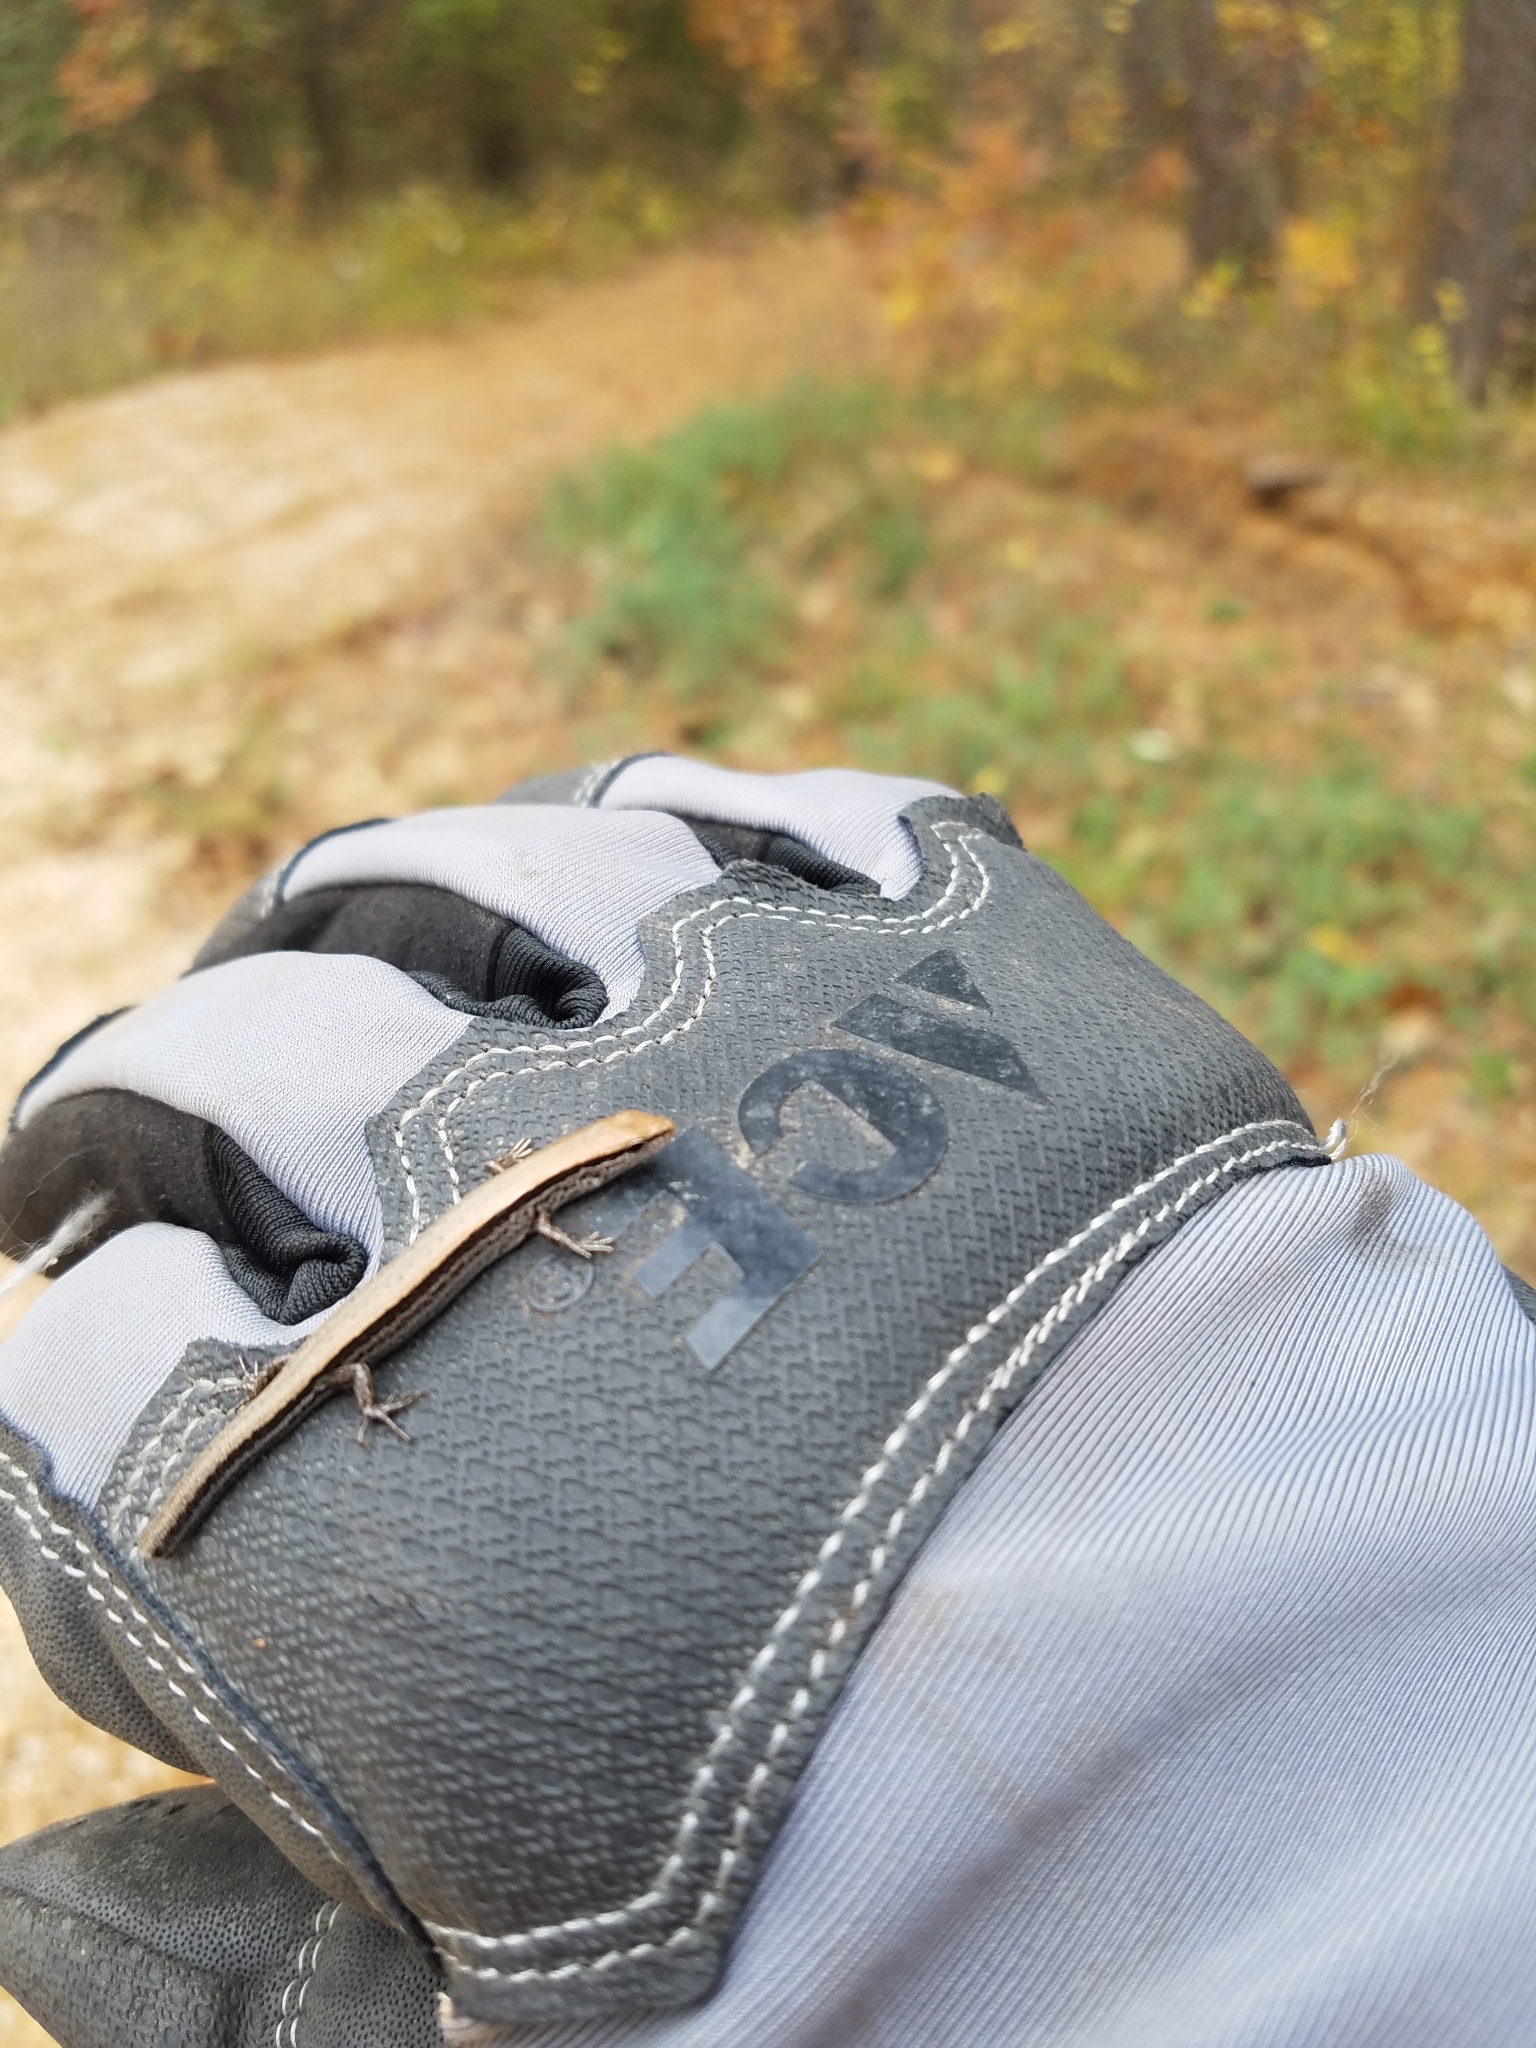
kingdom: Animalia
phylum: Chordata
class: Squamata
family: Scincidae
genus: Scincella
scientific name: Scincella lateralis
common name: Ground skink
